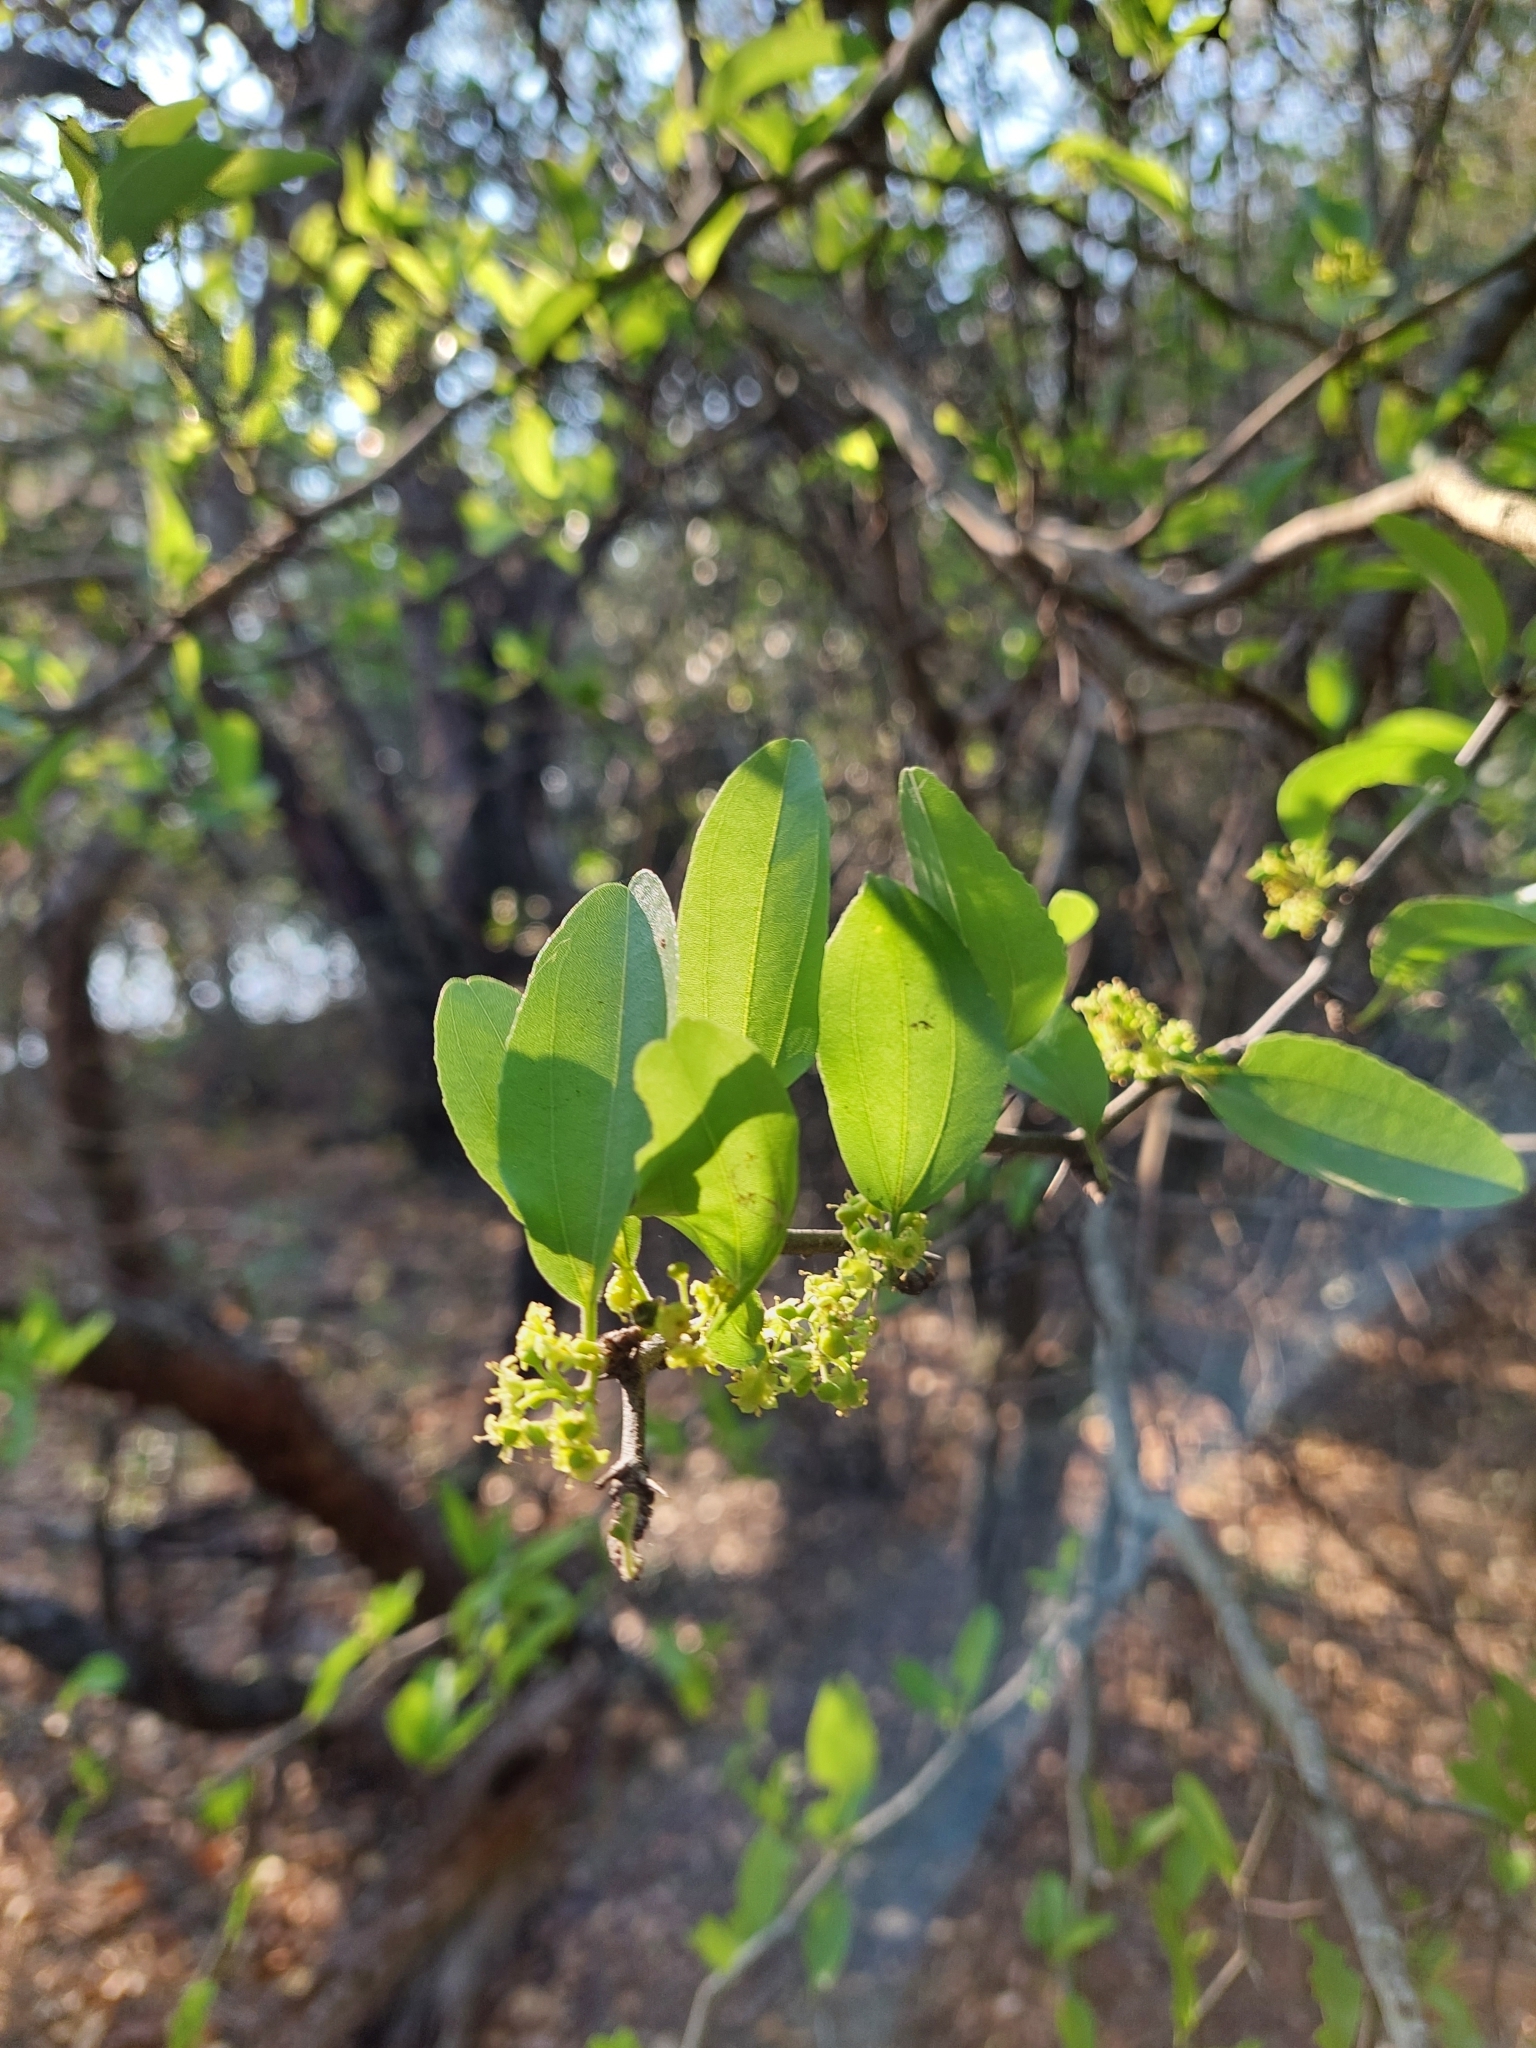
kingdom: Plantae
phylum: Tracheophyta
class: Magnoliopsida
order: Rosales
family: Rhamnaceae
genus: Sarcomphalus
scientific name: Sarcomphalus mistol
